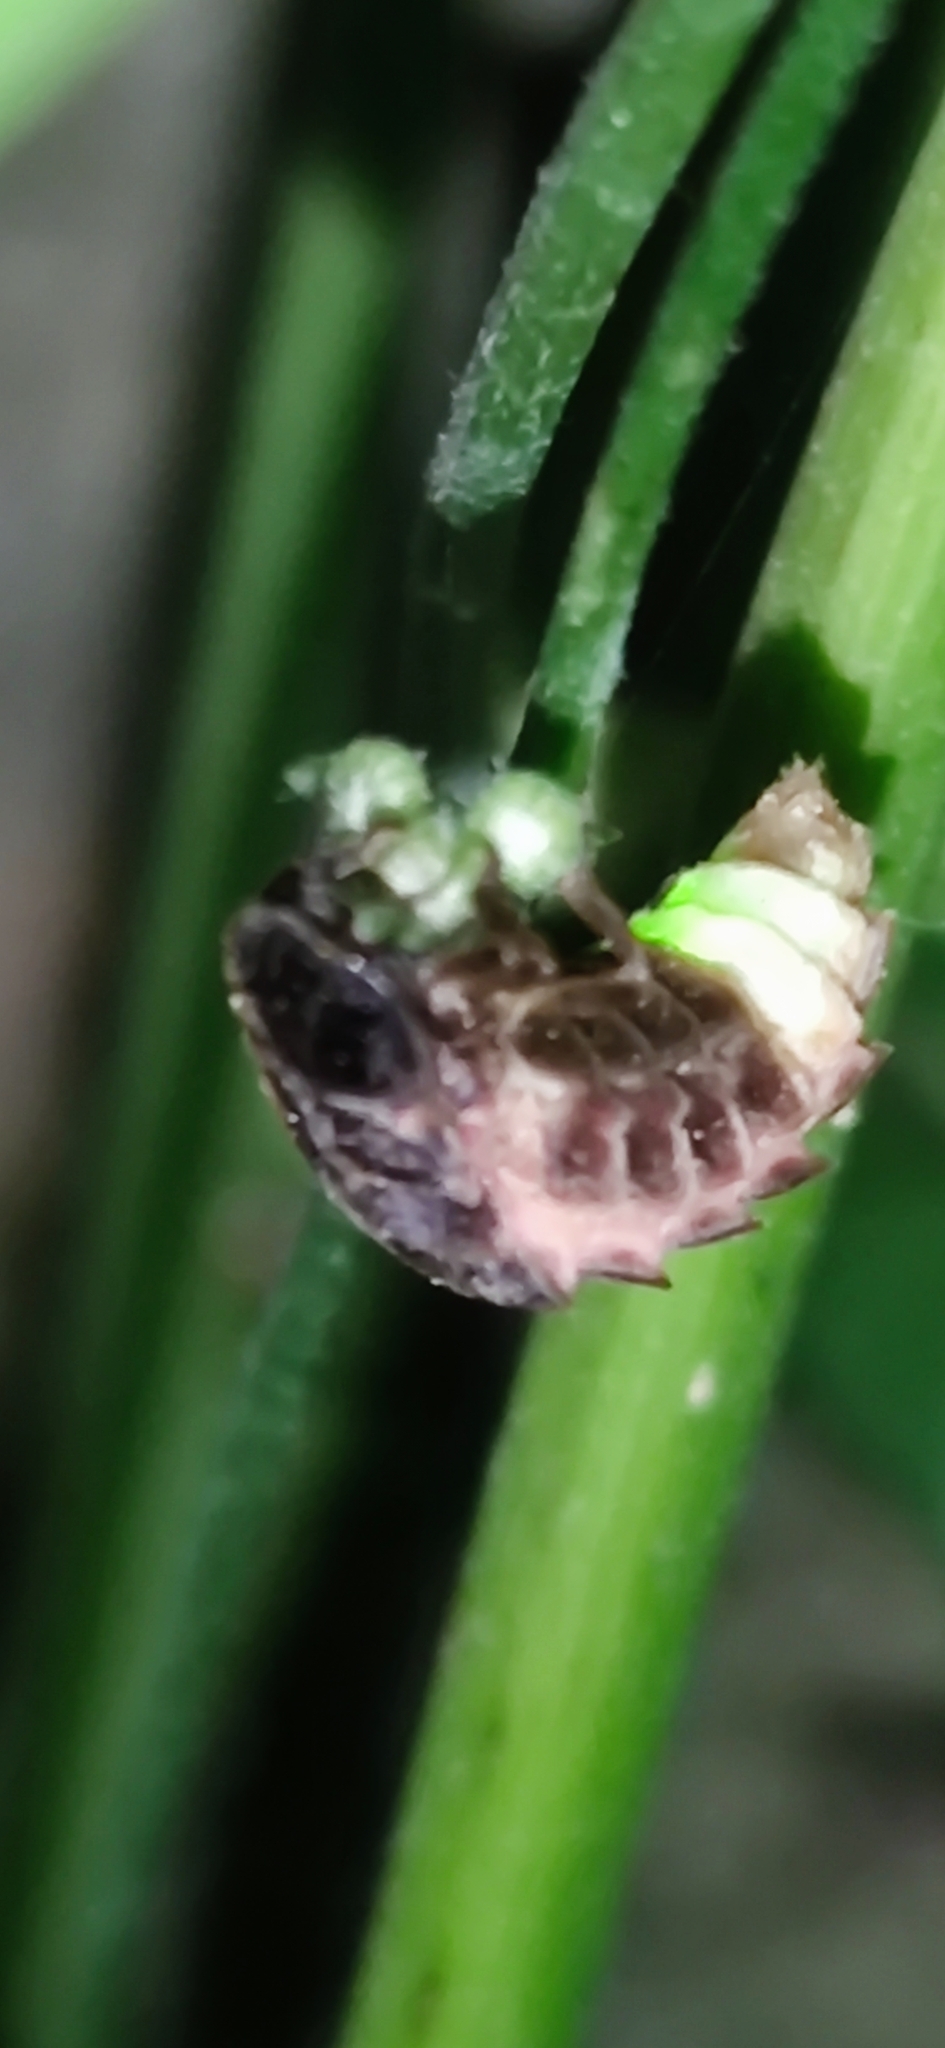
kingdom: Animalia
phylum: Arthropoda
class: Insecta
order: Coleoptera
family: Lampyridae
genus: Lampyris
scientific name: Lampyris noctiluca
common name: Glow-worm
